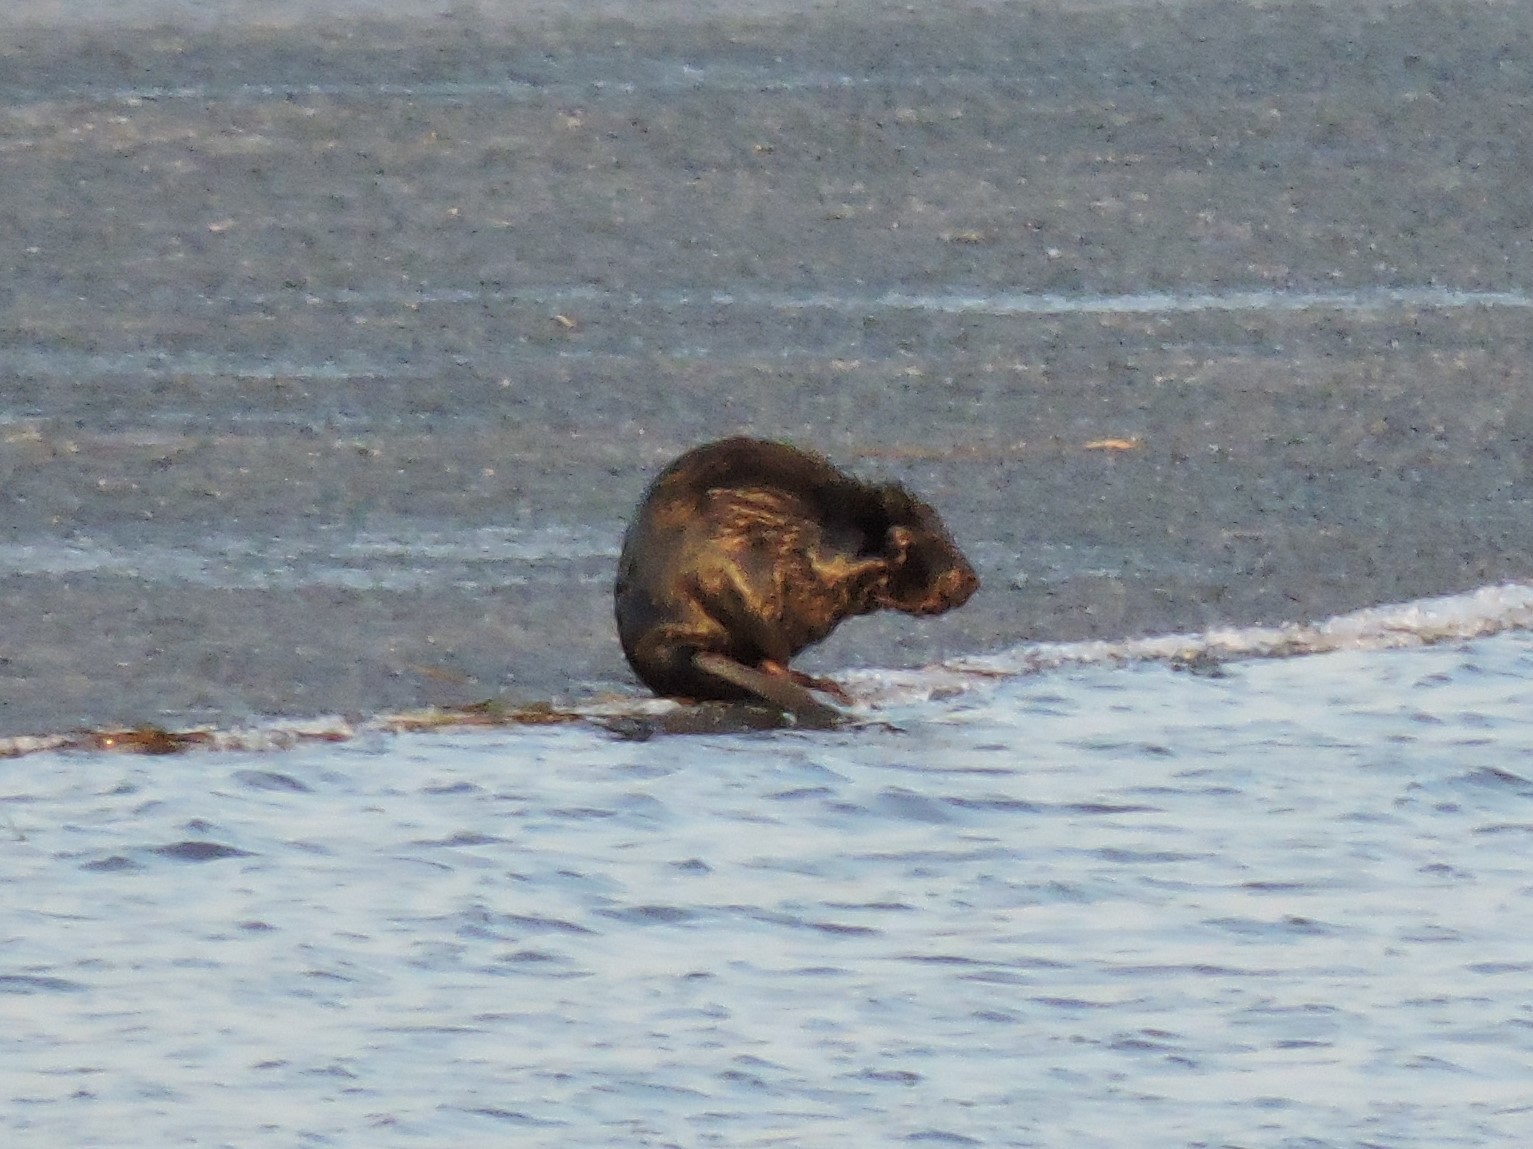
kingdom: Animalia
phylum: Chordata
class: Mammalia
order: Rodentia
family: Castoridae
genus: Castor
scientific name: Castor fiber
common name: Eurasian beaver
